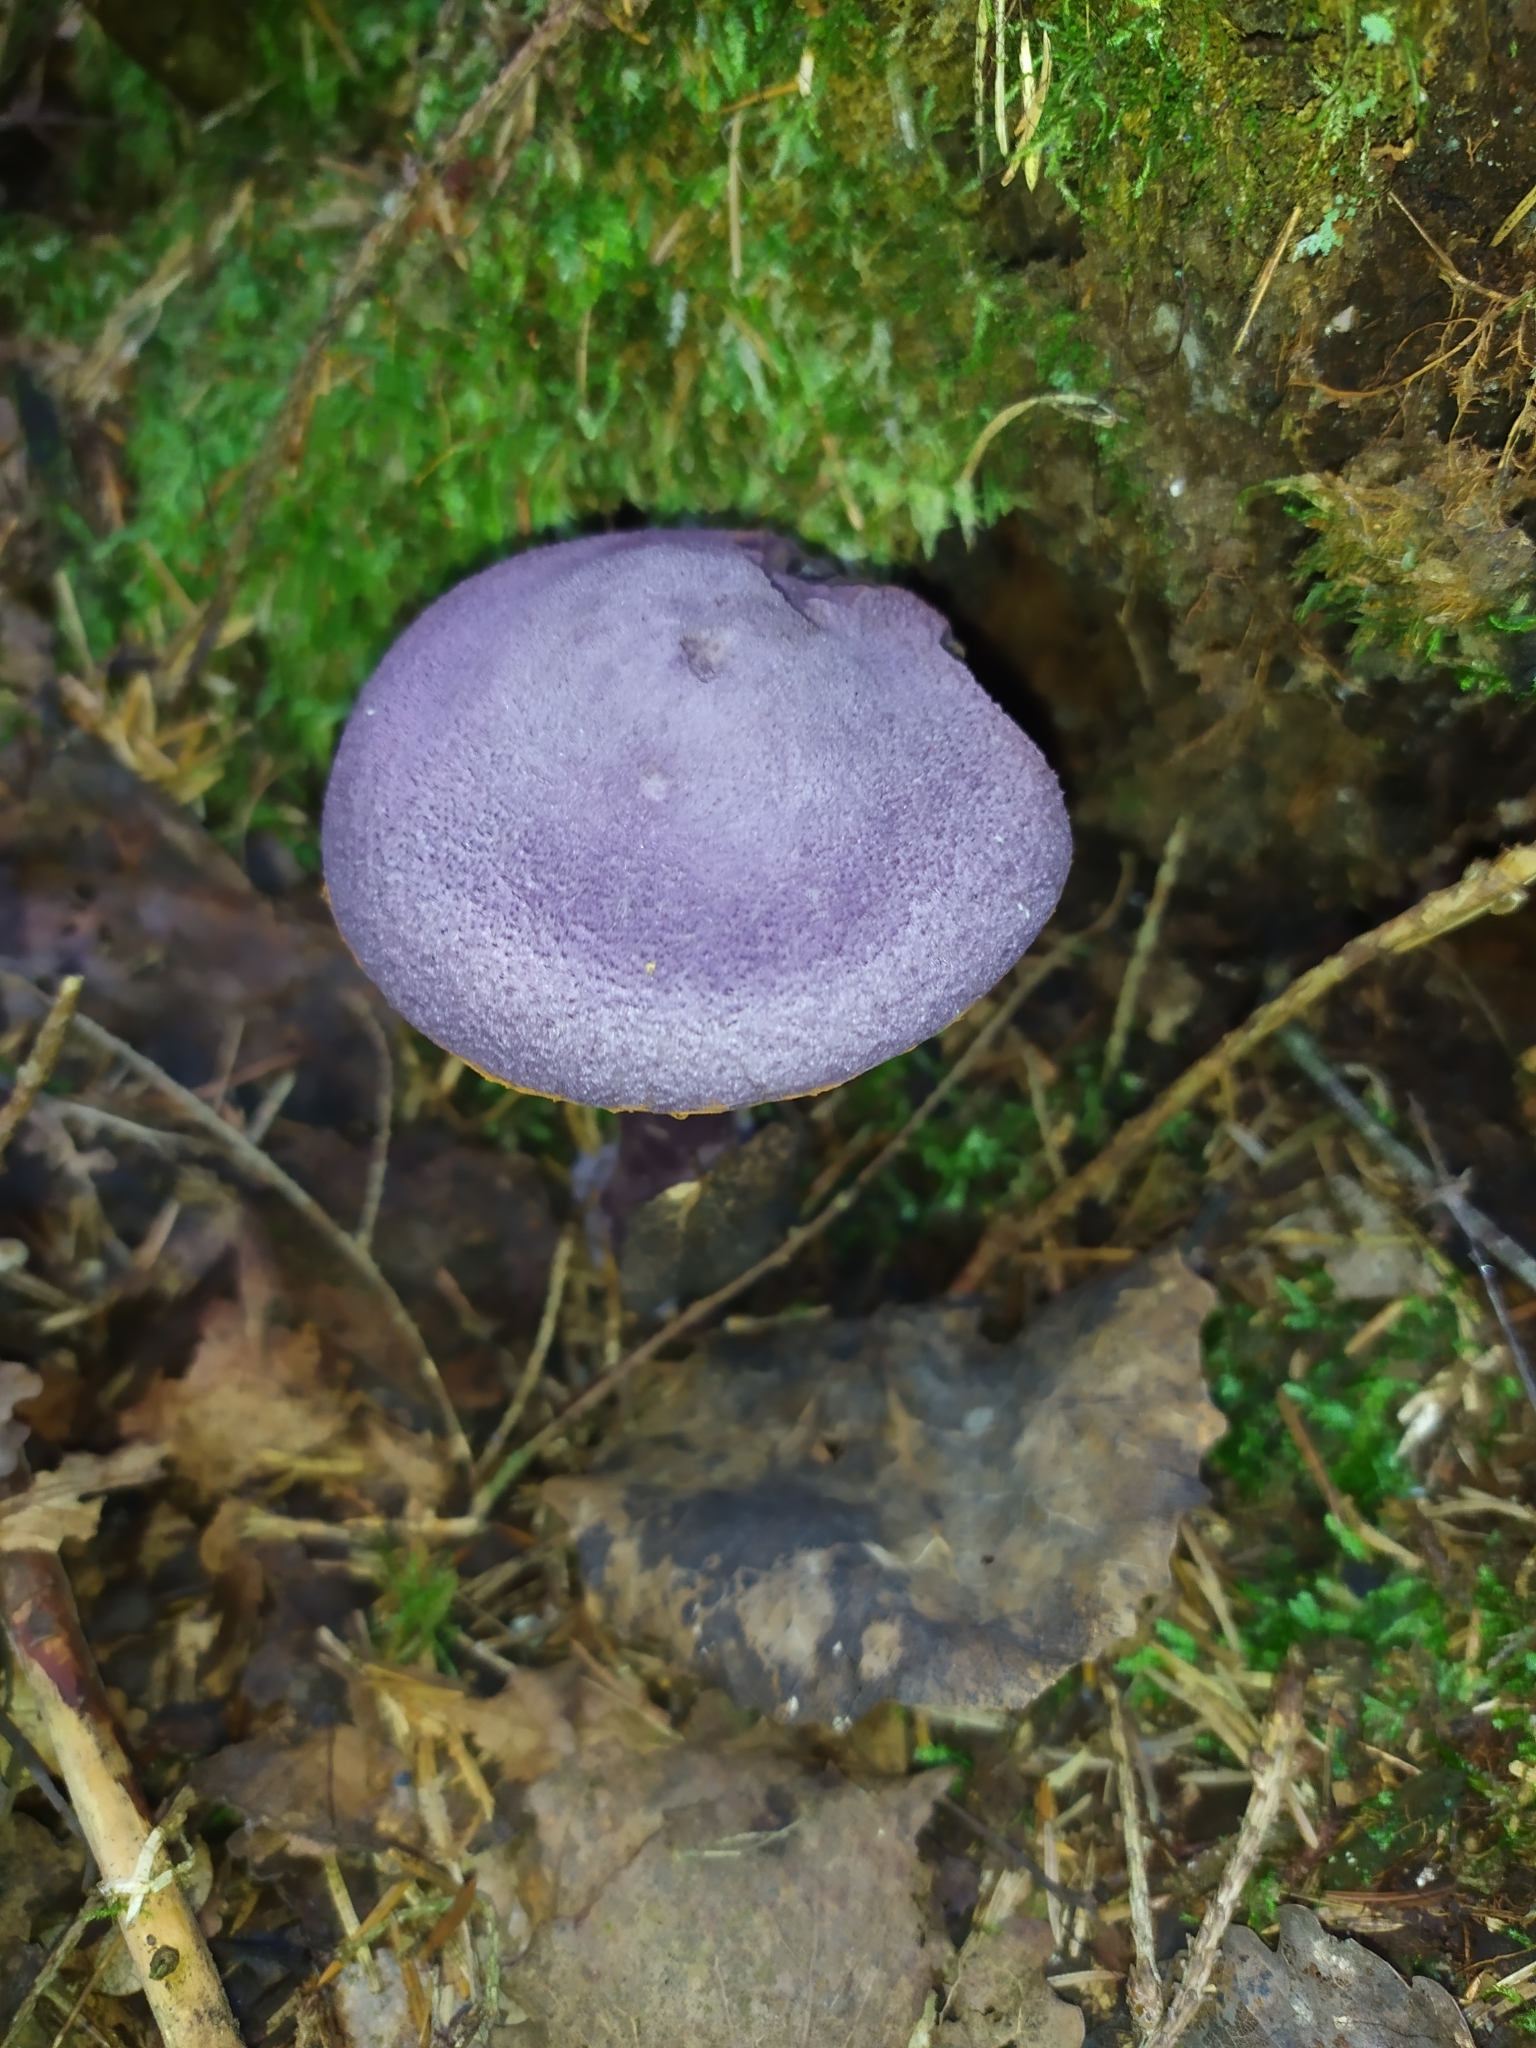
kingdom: Fungi
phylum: Basidiomycota
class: Agaricomycetes
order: Agaricales
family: Cortinariaceae
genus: Cortinarius
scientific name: Cortinarius violaceus
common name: Violet webcap
